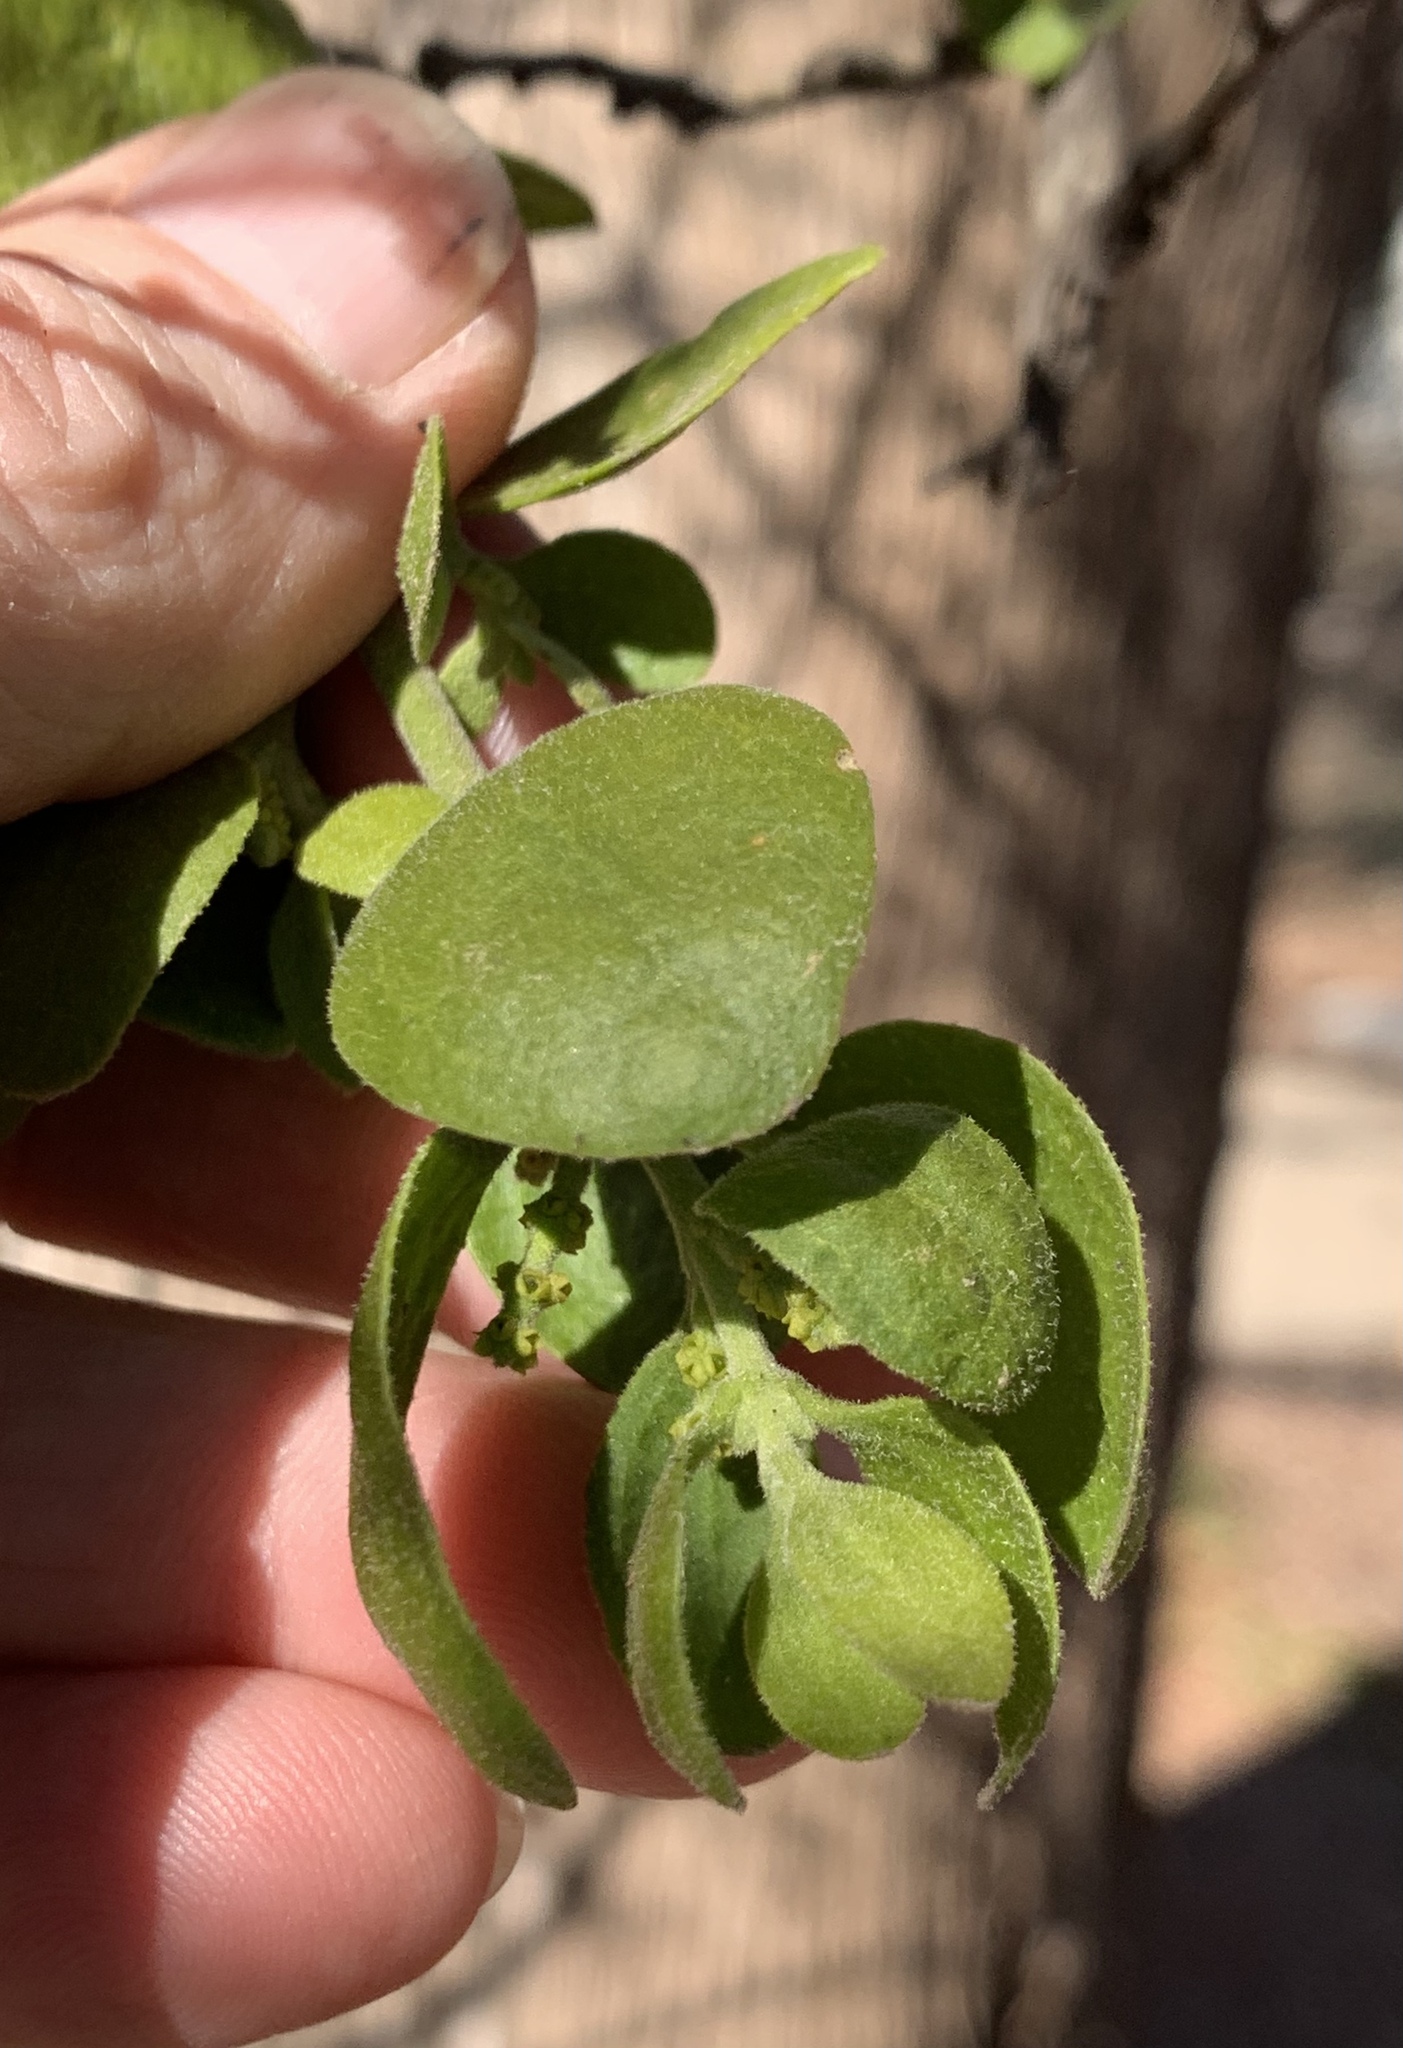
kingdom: Plantae
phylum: Tracheophyta
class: Magnoliopsida
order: Santalales
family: Viscaceae
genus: Phoradendron
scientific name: Phoradendron leucarpum
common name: Pacific mistletoe
